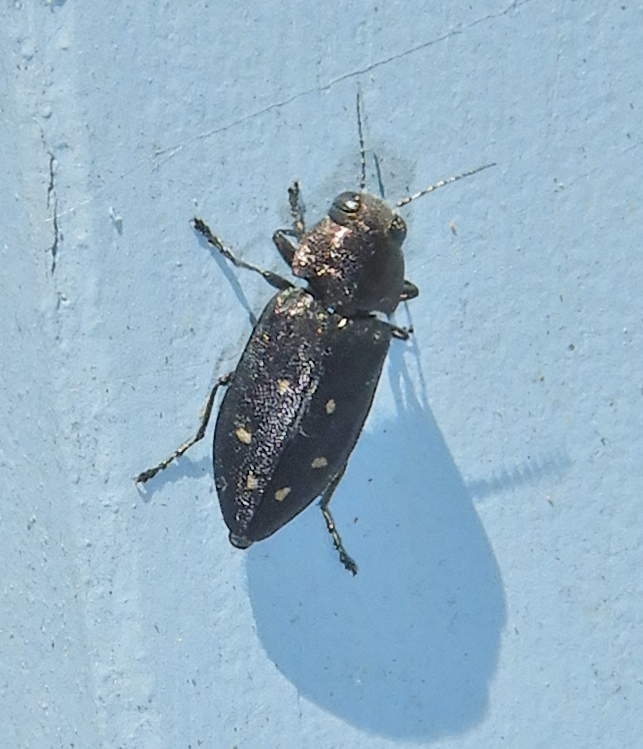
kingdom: Animalia
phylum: Arthropoda
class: Insecta
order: Coleoptera
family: Buprestidae
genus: Phaenops
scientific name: Phaenops fulvoguttata
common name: Hemlock borer
